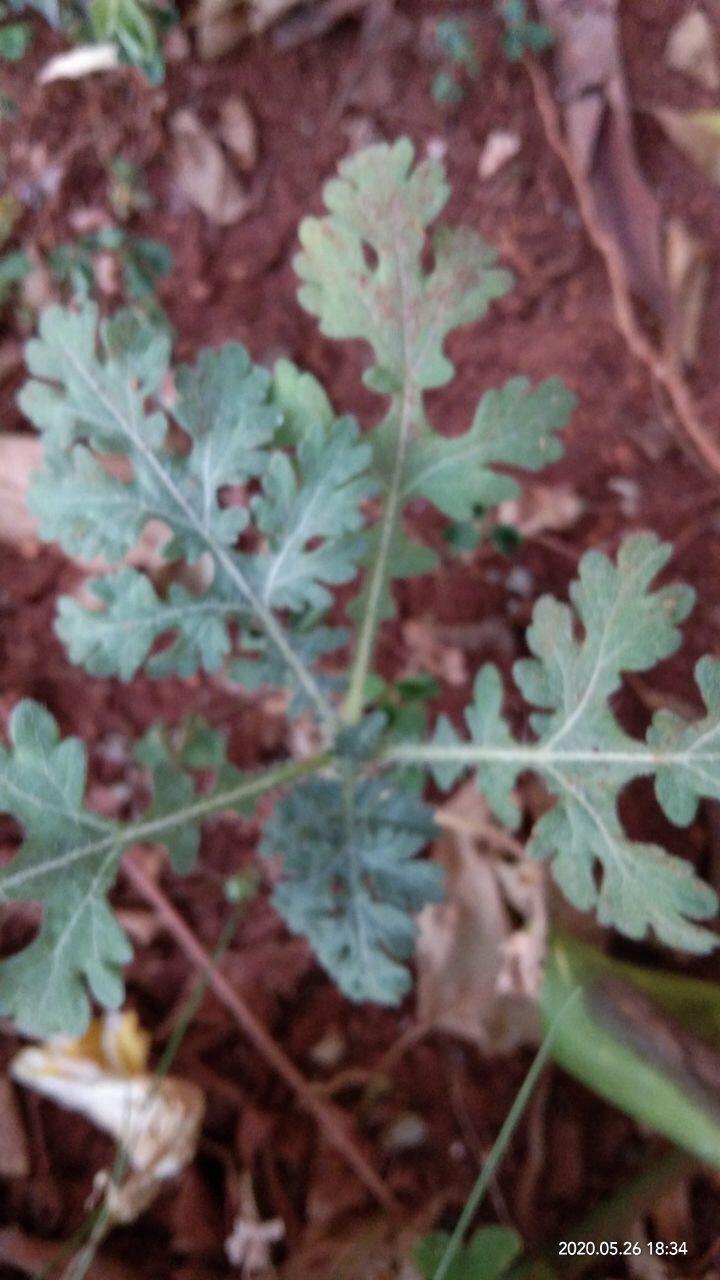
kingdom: Plantae
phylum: Tracheophyta
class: Magnoliopsida
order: Asterales
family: Asteraceae
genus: Parthenium
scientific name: Parthenium hysterophorus
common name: Santa maria feverfew
